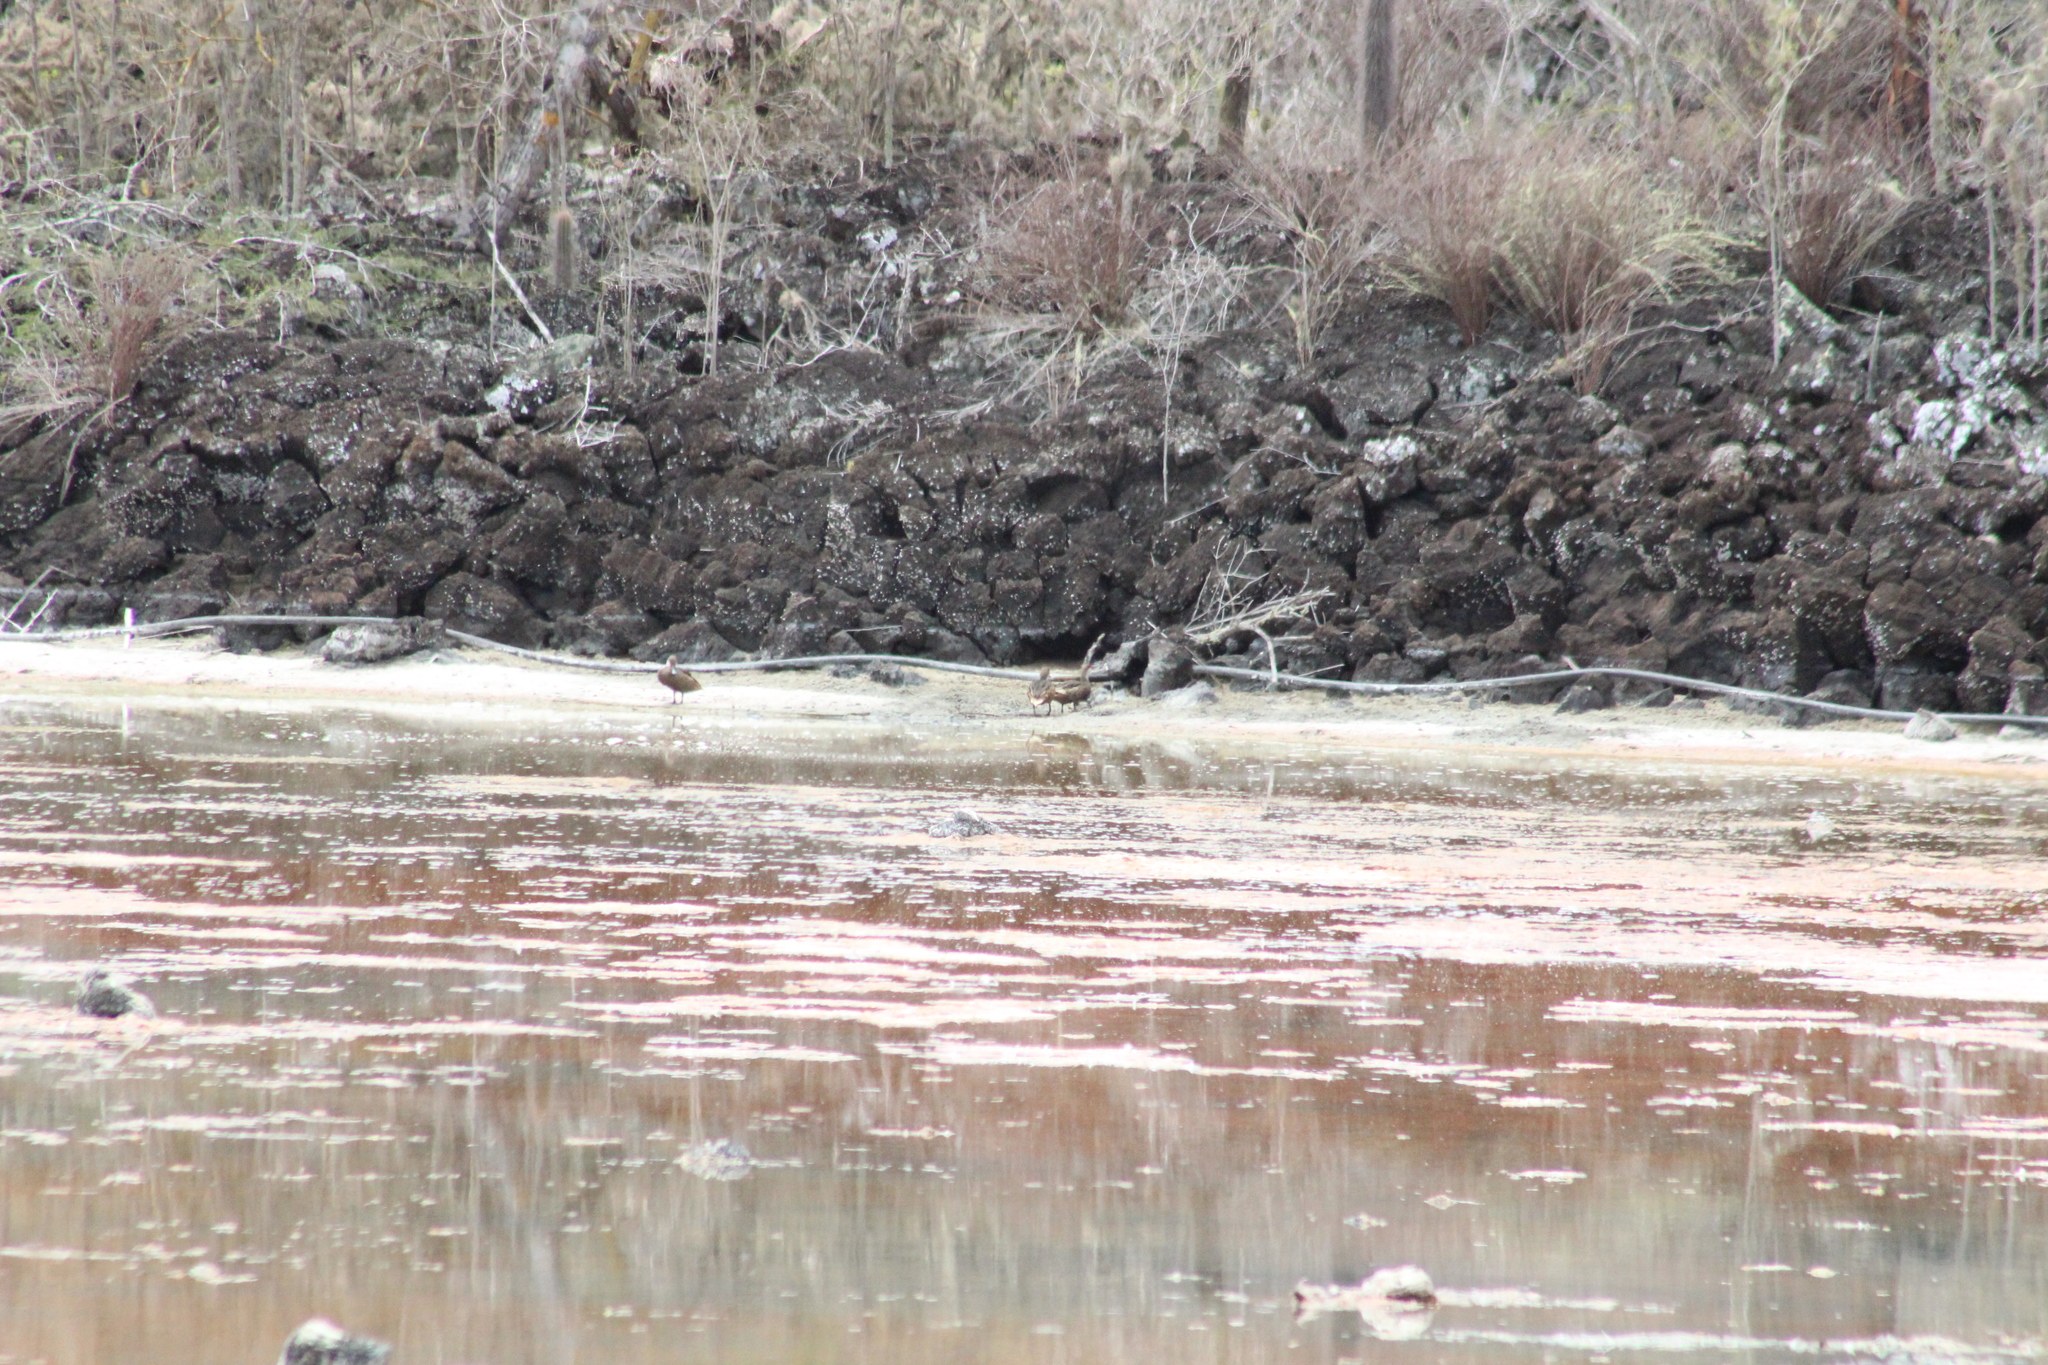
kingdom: Animalia
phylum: Chordata
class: Aves
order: Anseriformes
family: Anatidae
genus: Anas
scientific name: Anas bahamensis
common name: White-cheeked pintail
